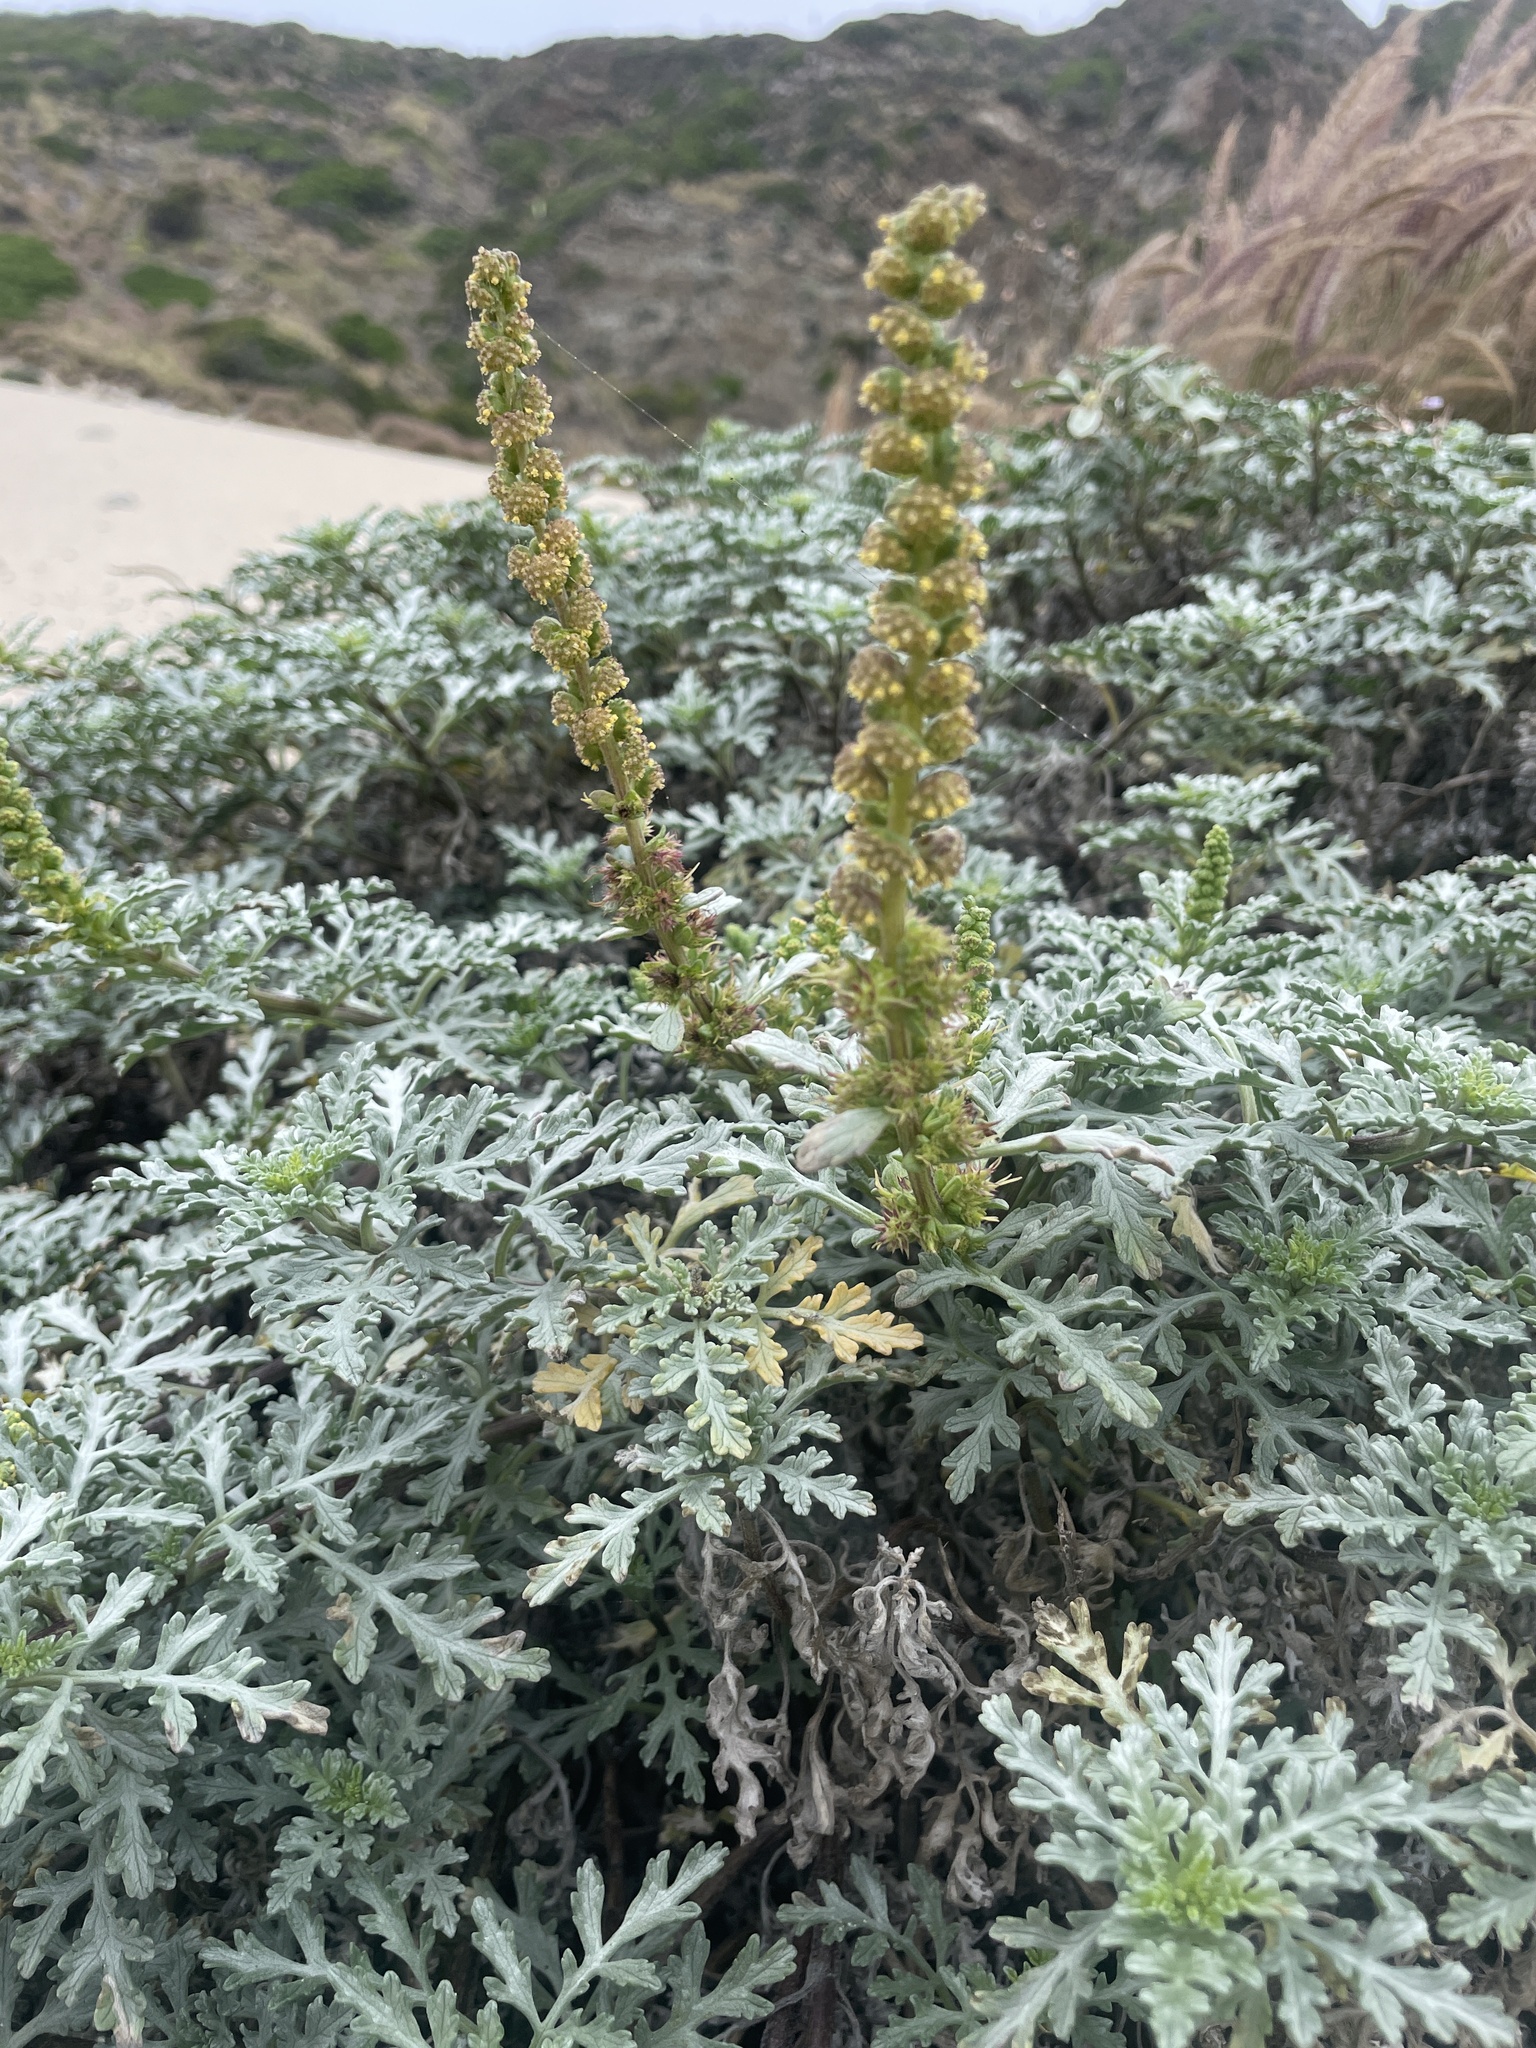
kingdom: Plantae
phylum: Tracheophyta
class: Magnoliopsida
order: Asterales
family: Asteraceae
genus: Ambrosia
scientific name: Ambrosia chamissonis
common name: Beachbur
